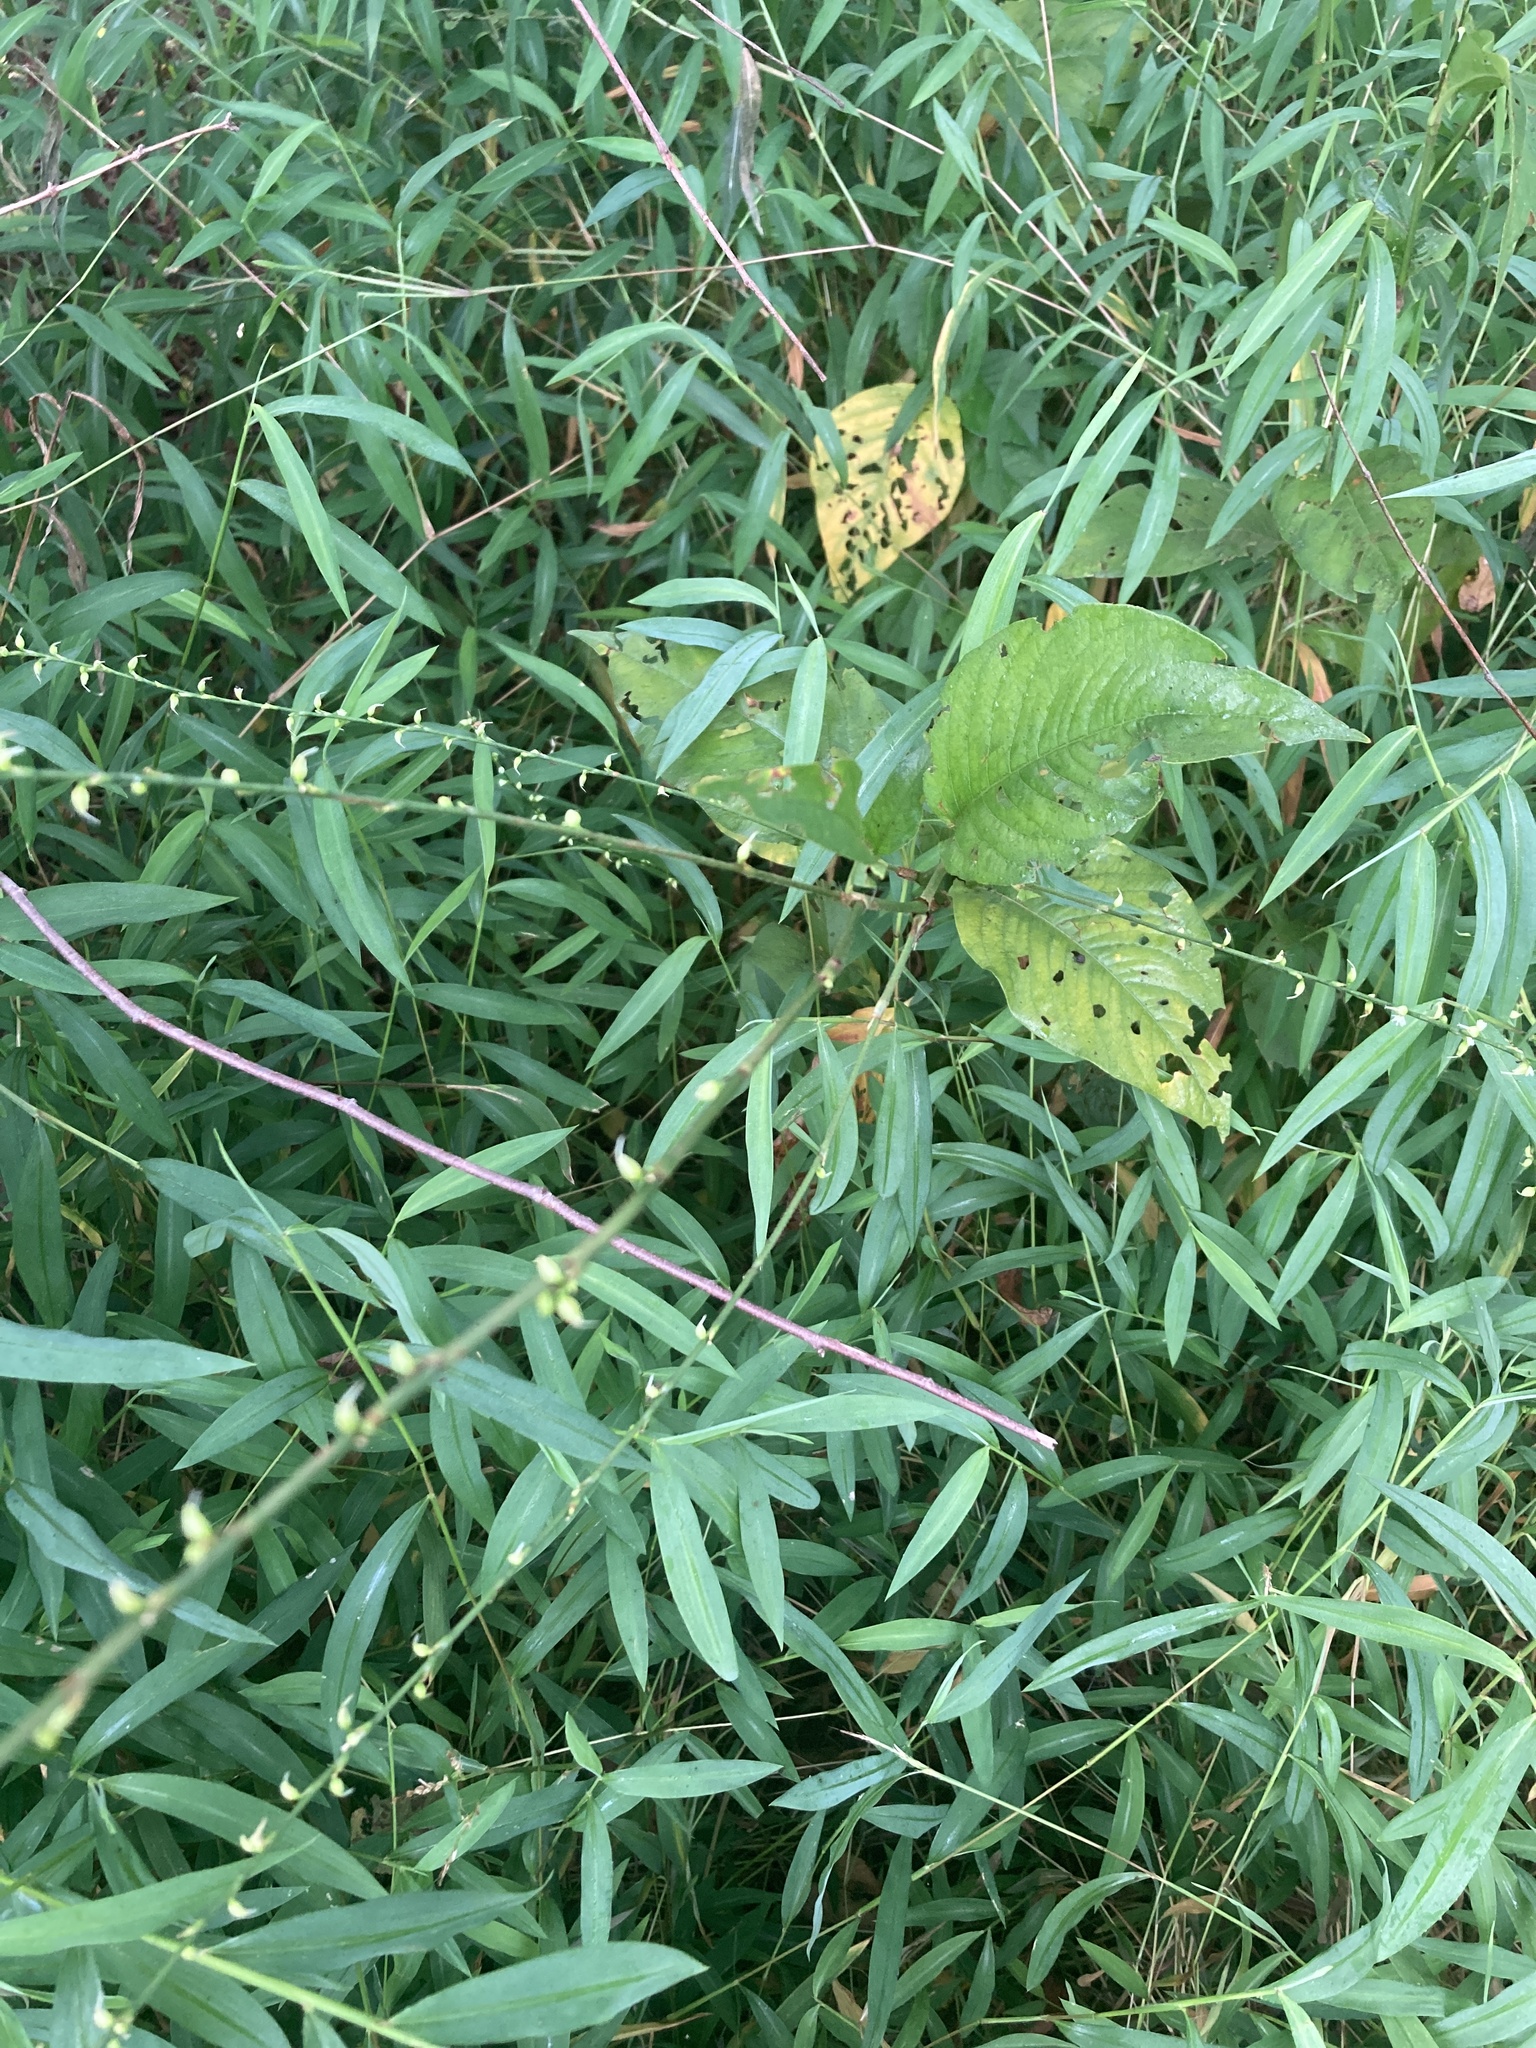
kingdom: Plantae
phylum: Tracheophyta
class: Magnoliopsida
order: Caryophyllales
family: Polygonaceae
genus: Persicaria
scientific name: Persicaria virginiana
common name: Jumpseed
